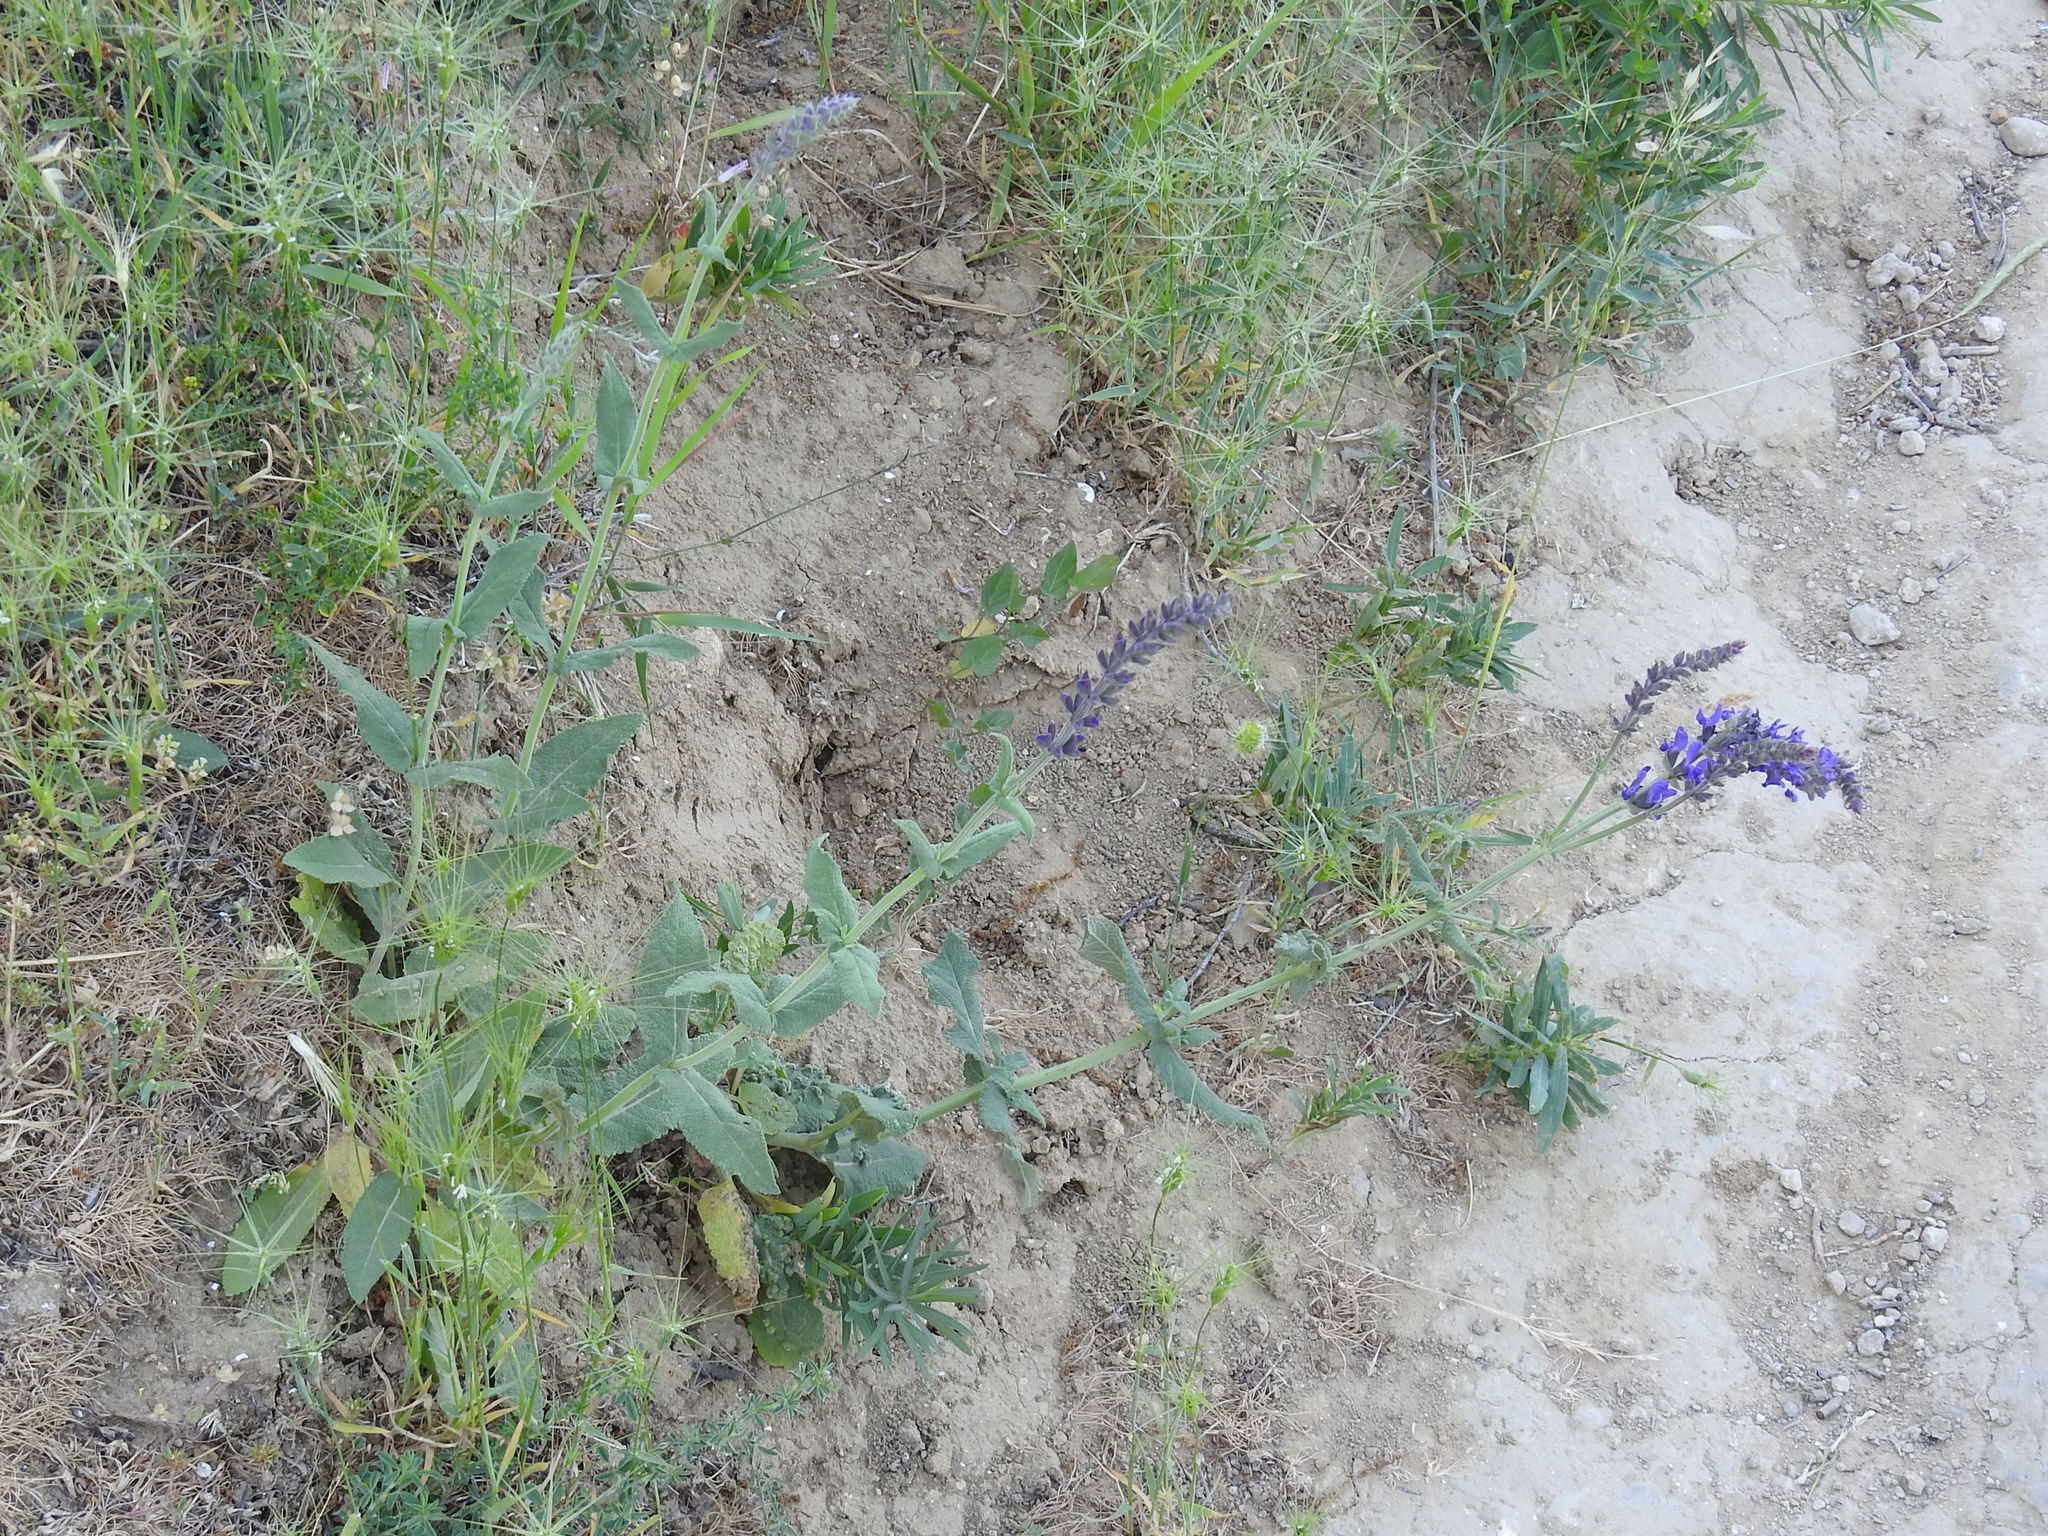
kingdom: Plantae
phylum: Tracheophyta
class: Magnoliopsida
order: Lamiales
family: Lamiaceae
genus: Salvia
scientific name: Salvia nemorosa
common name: Balkan clary
